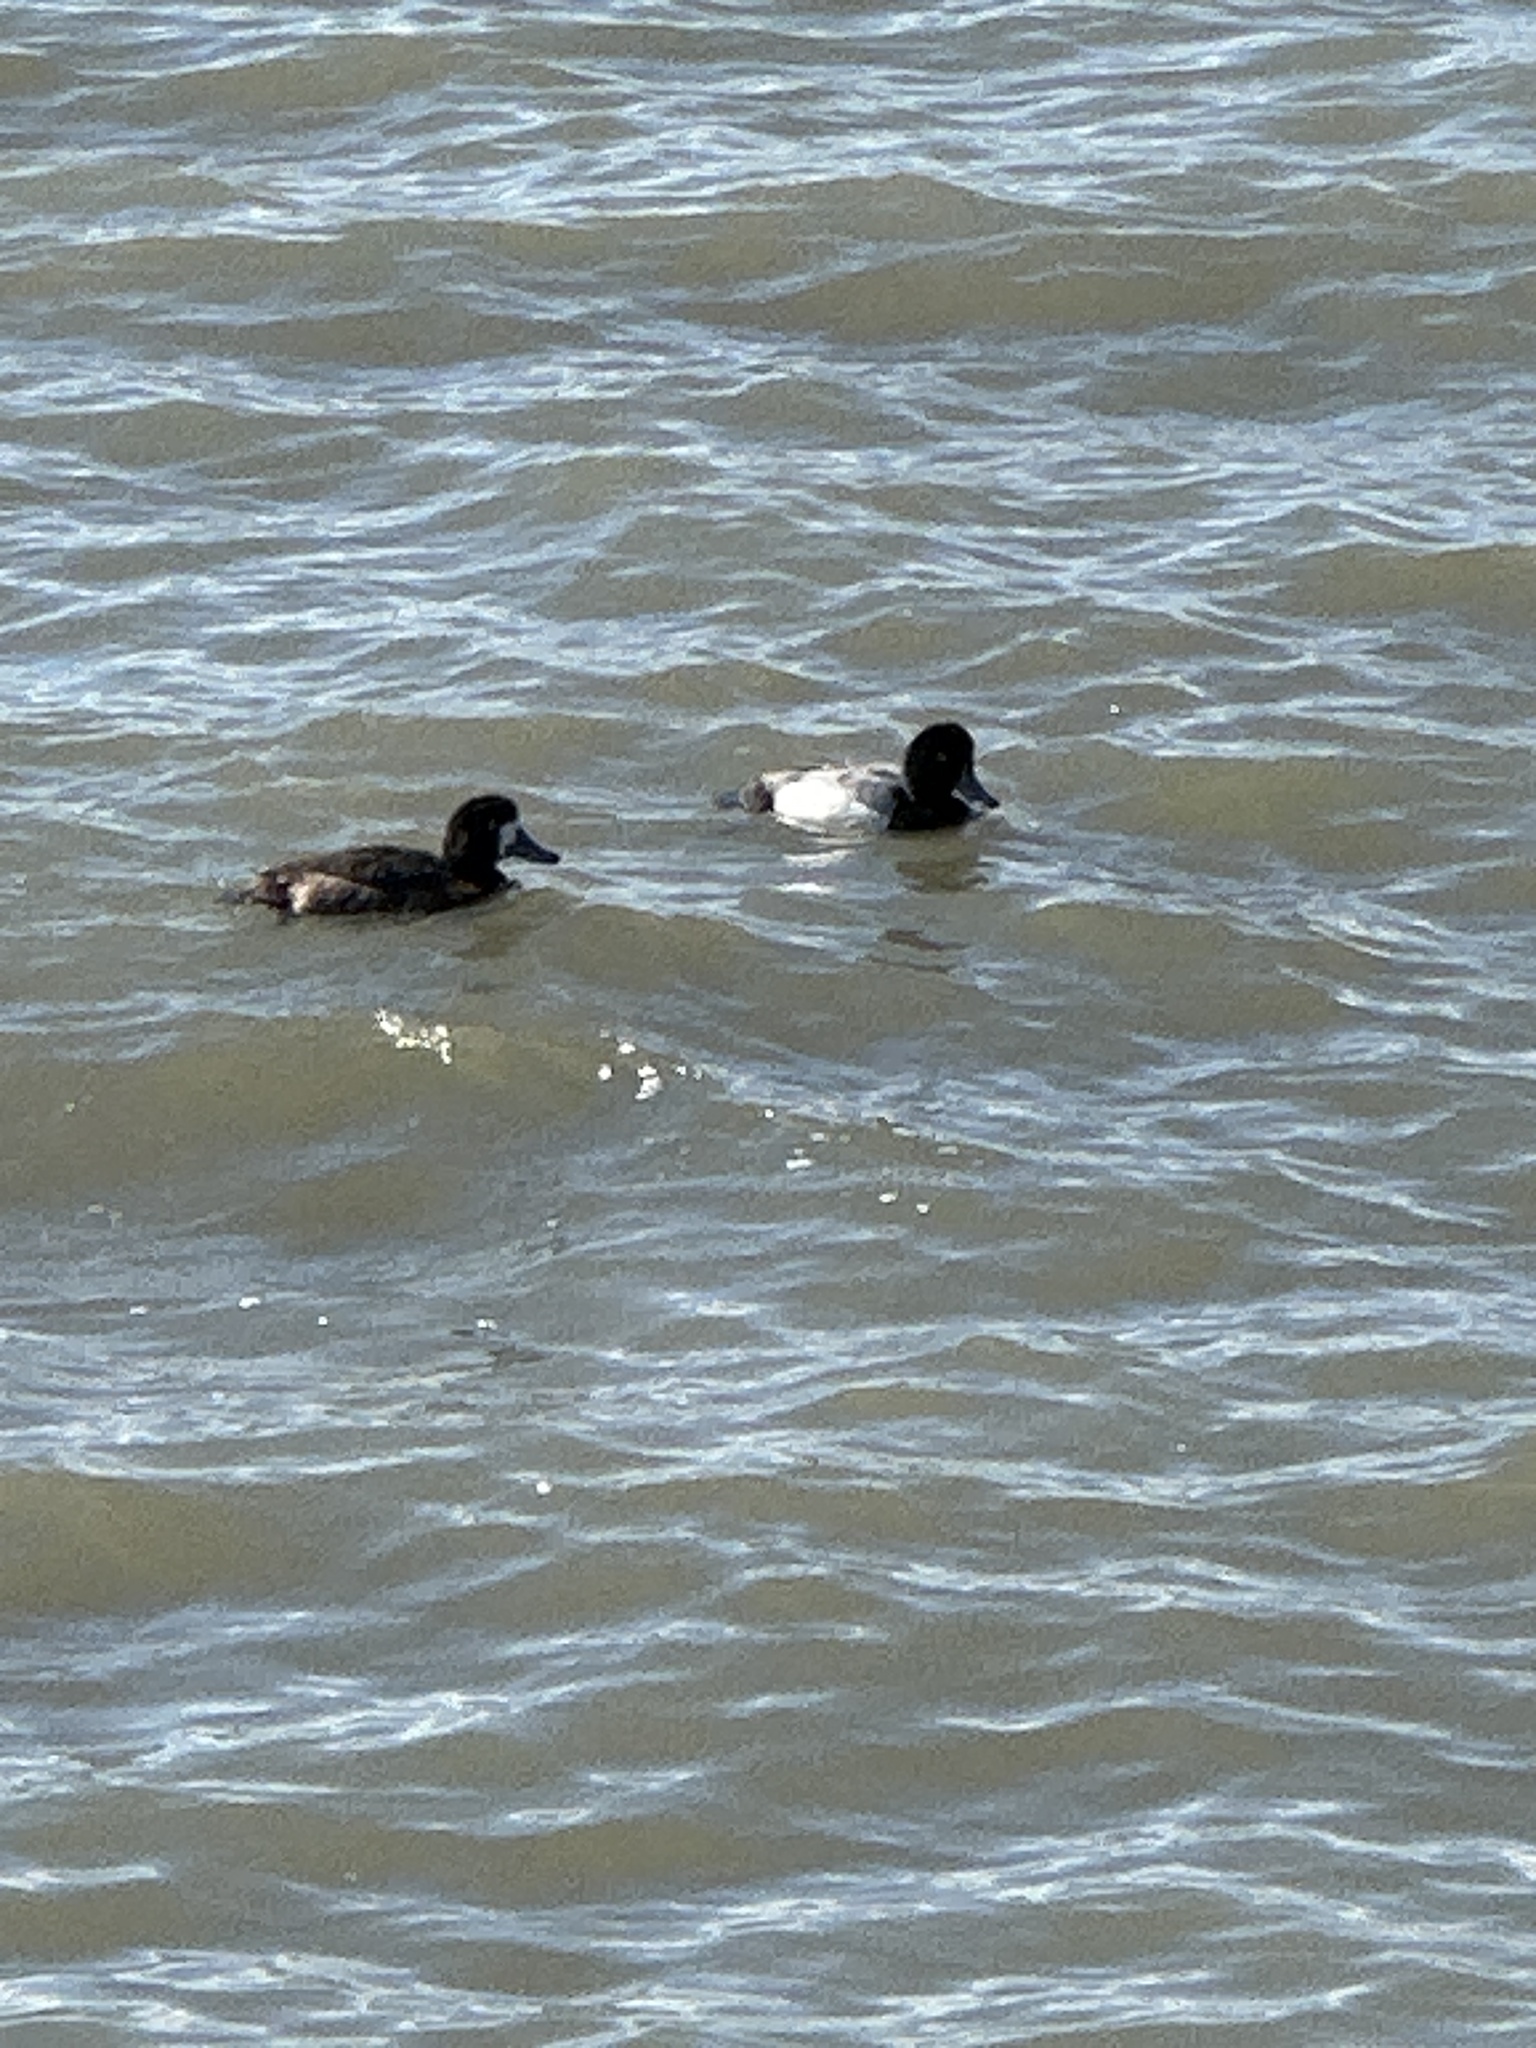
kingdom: Animalia
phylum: Chordata
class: Aves
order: Anseriformes
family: Anatidae
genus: Aythya
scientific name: Aythya marila
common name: Greater scaup
